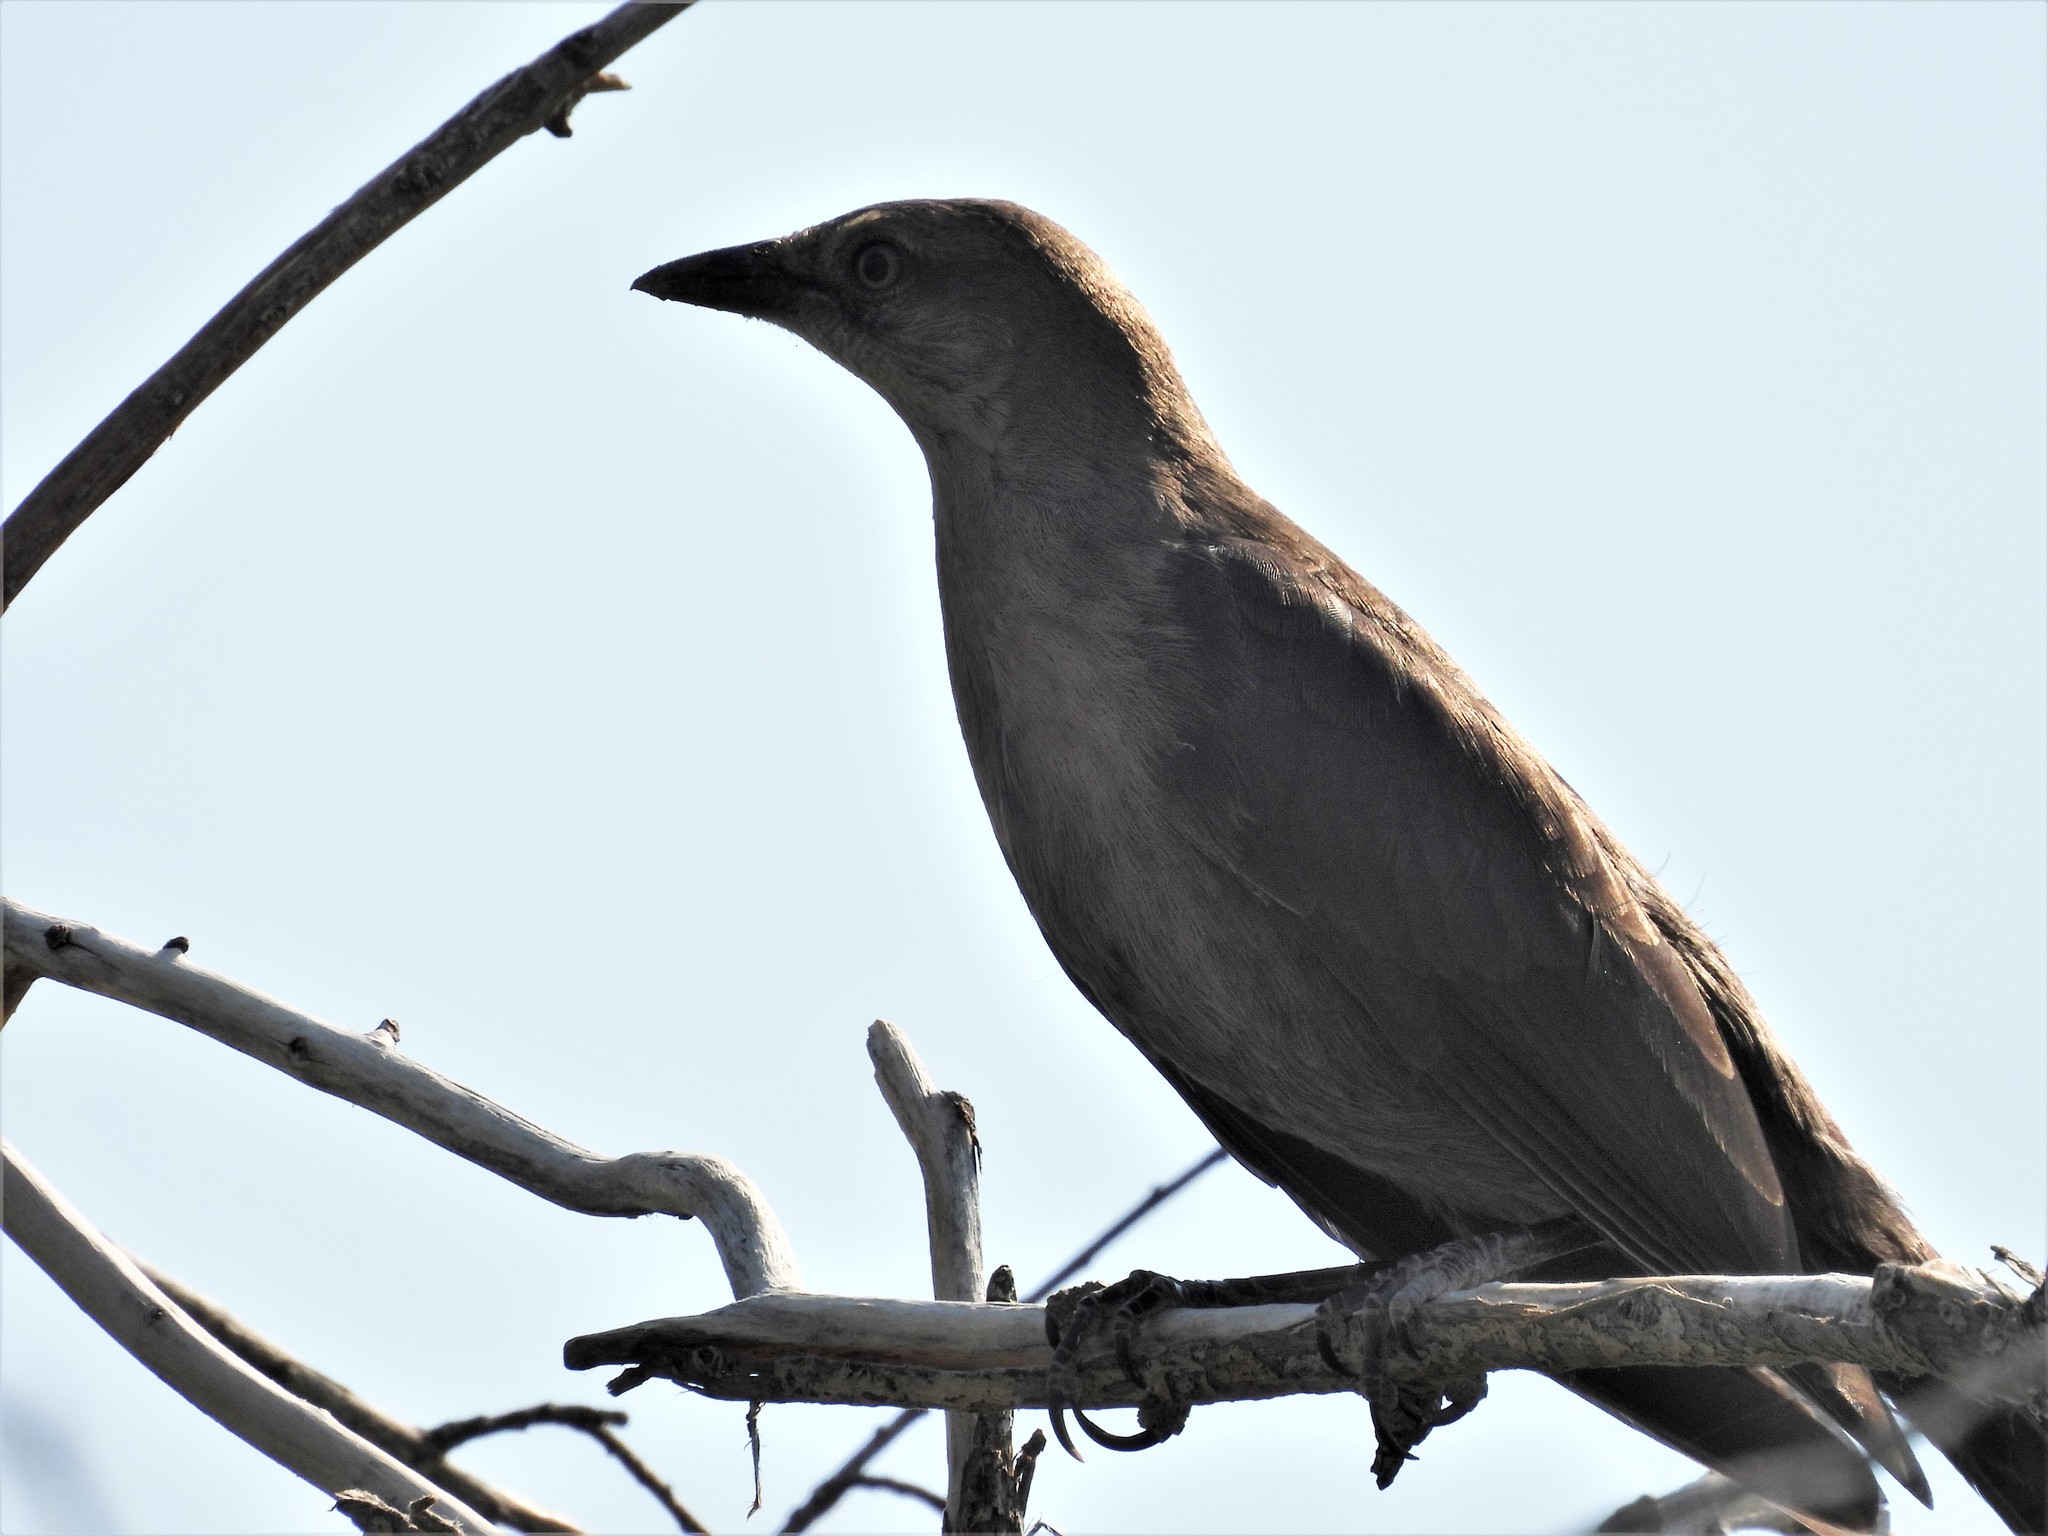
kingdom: Animalia
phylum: Chordata
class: Aves
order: Passeriformes
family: Icteridae
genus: Quiscalus
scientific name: Quiscalus mexicanus
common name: Great-tailed grackle
